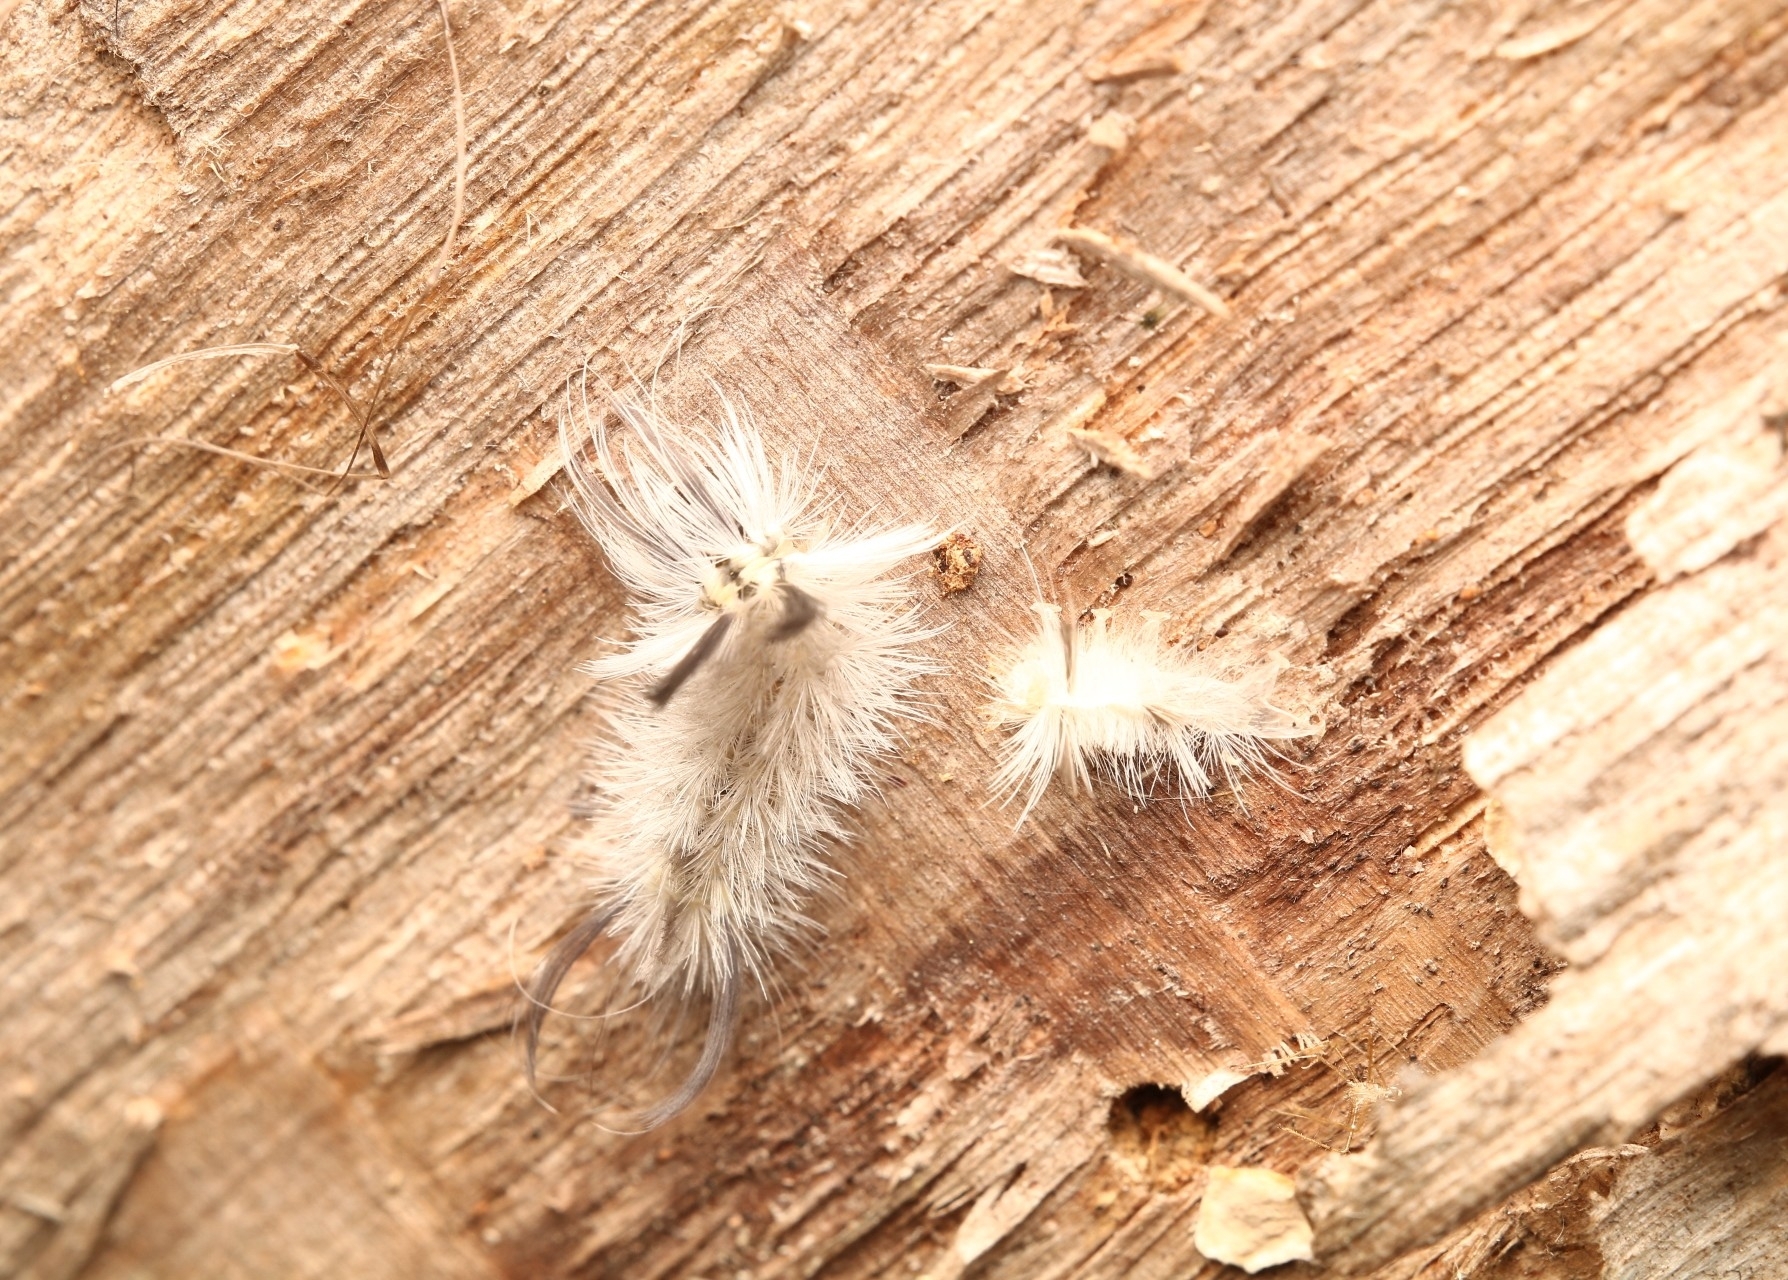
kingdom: Animalia
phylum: Arthropoda
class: Insecta
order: Lepidoptera
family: Erebidae
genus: Halysidota
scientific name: Halysidota tessellaris
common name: Banded tussock moth
